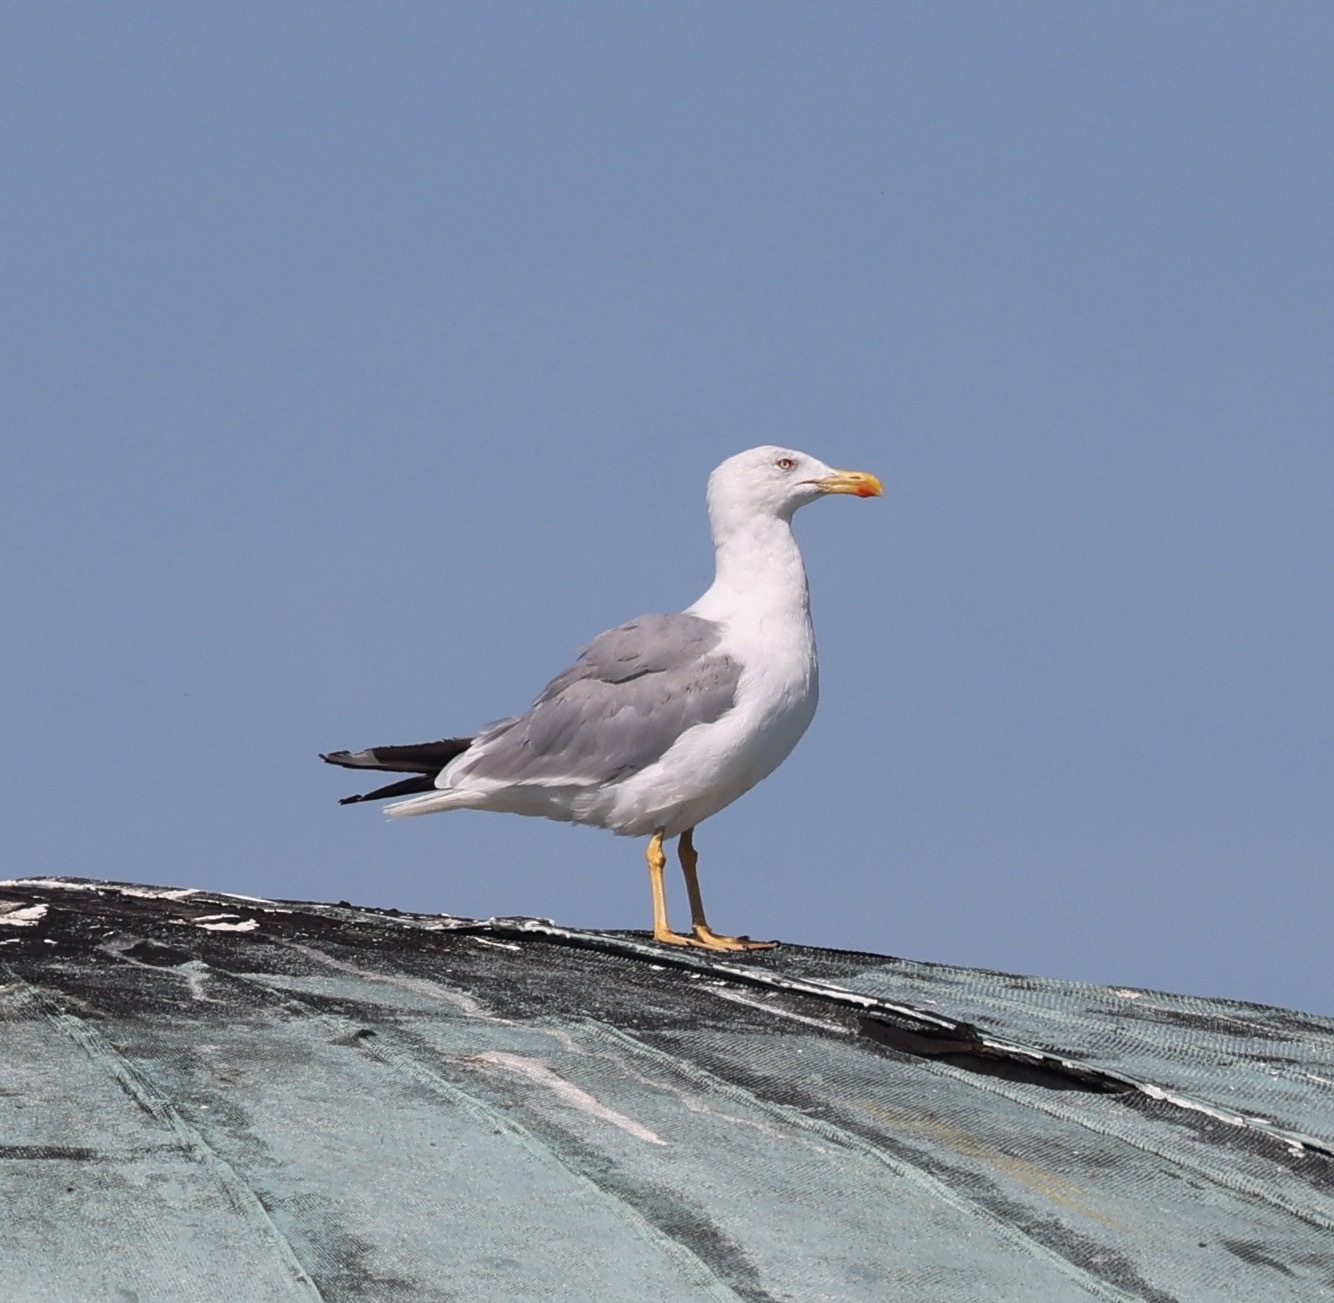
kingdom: Animalia
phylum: Chordata
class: Aves
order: Charadriiformes
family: Laridae
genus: Larus
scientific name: Larus michahellis
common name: Yellow-legged gull
